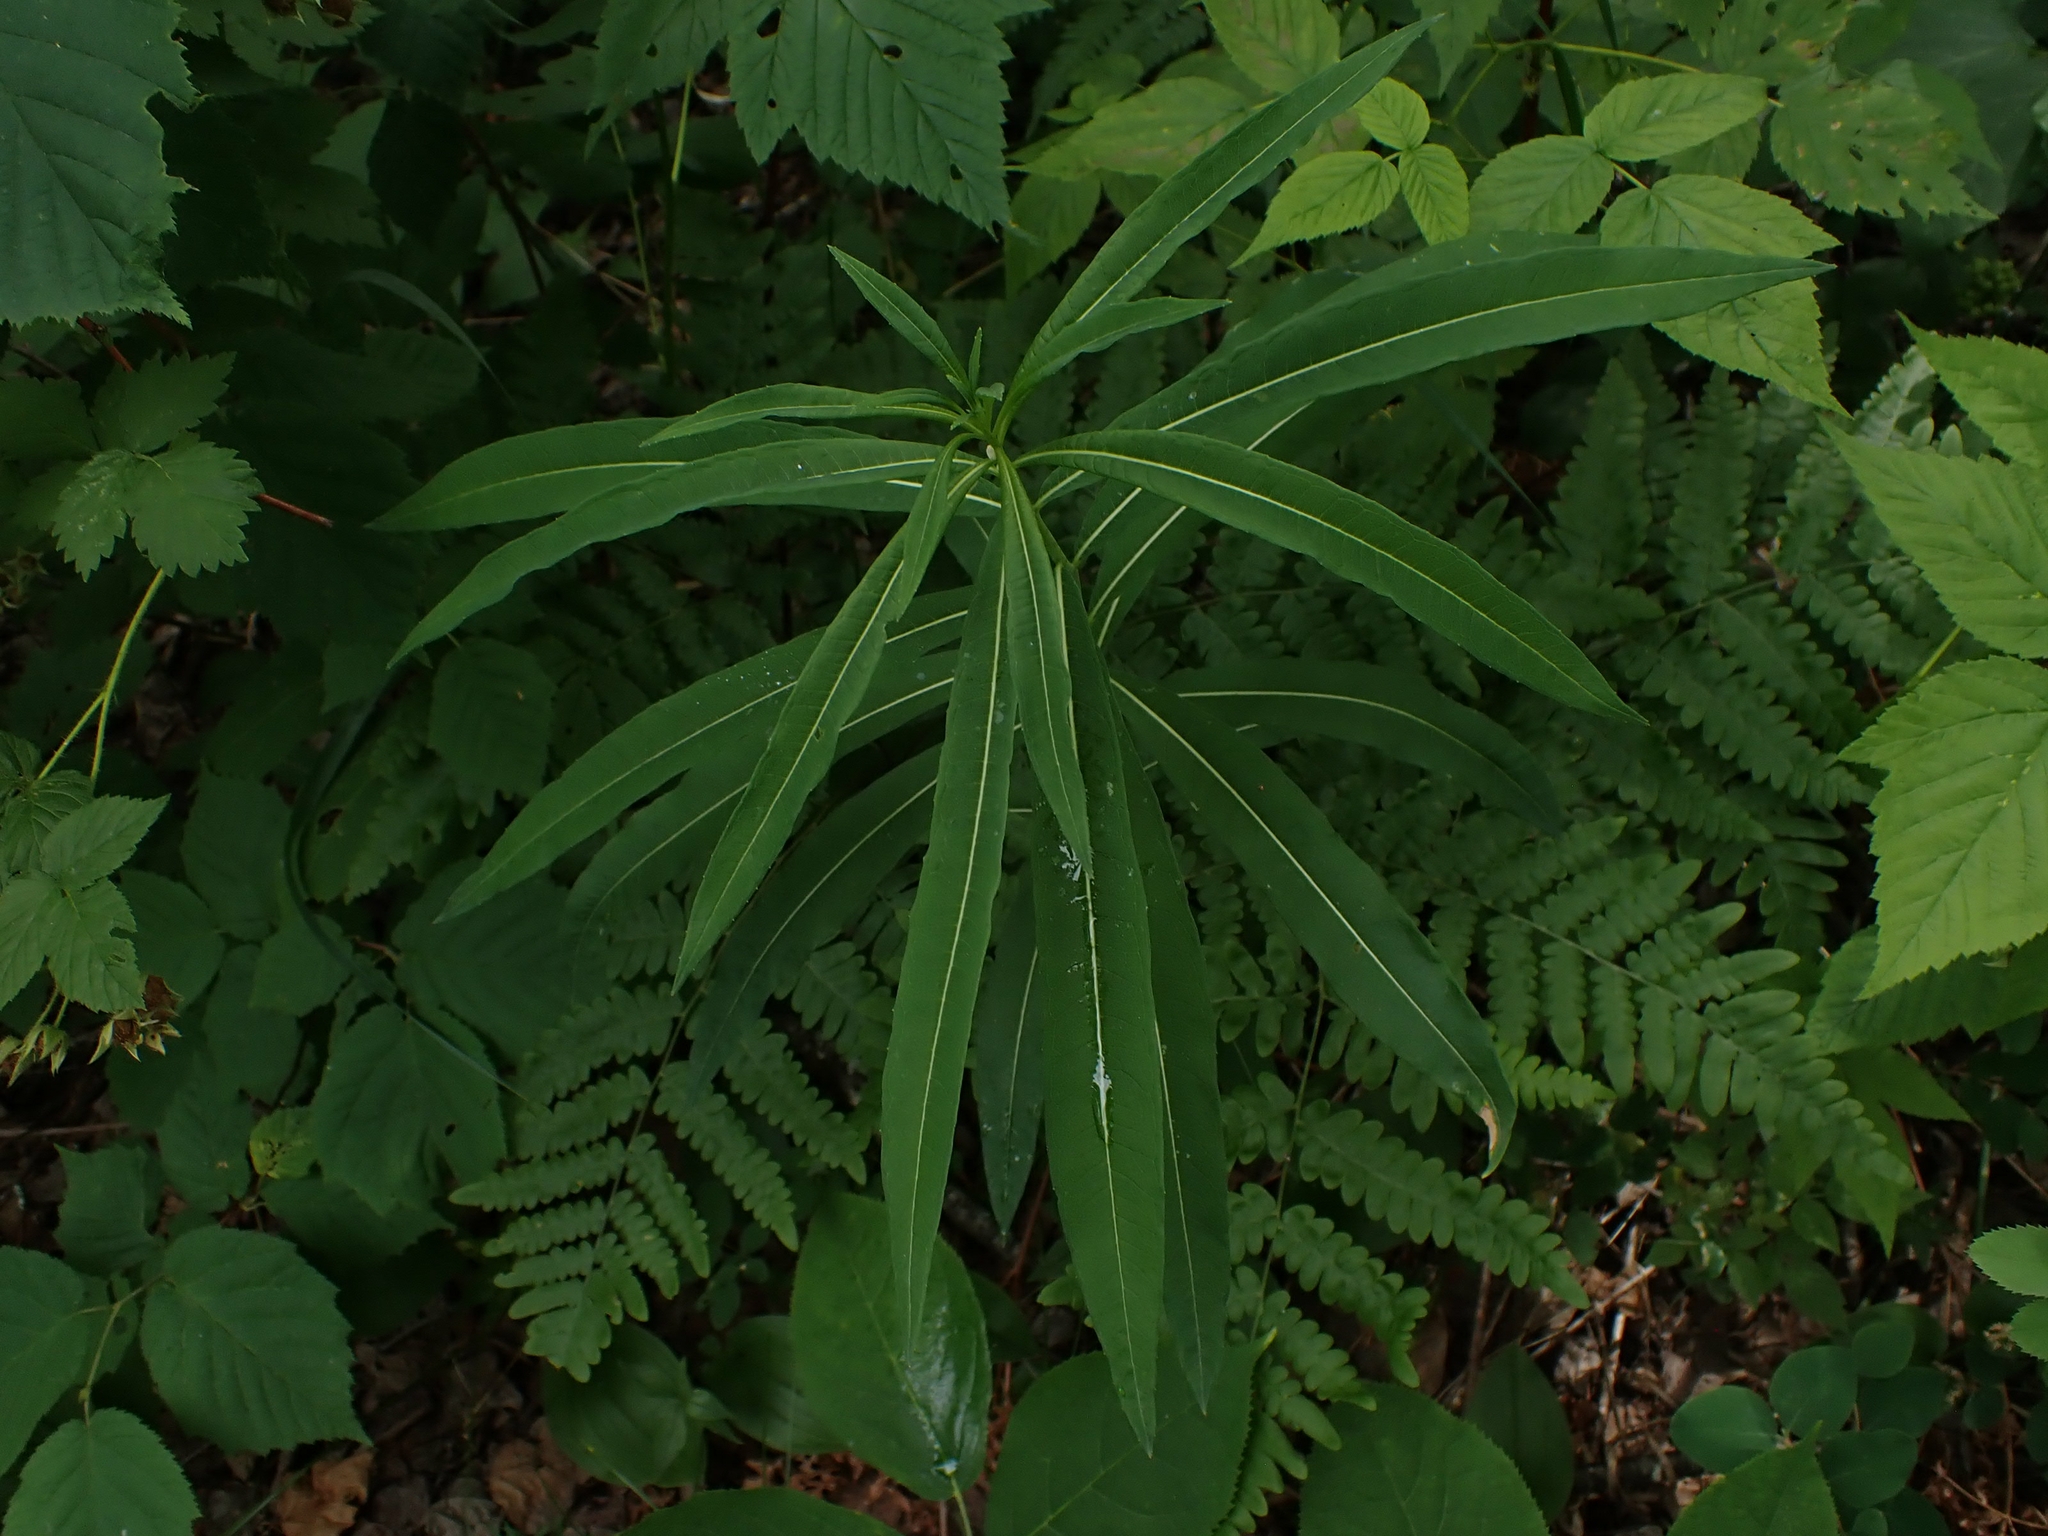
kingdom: Plantae
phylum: Tracheophyta
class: Magnoliopsida
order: Myrtales
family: Onagraceae
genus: Chamaenerion
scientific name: Chamaenerion angustifolium
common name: Fireweed
